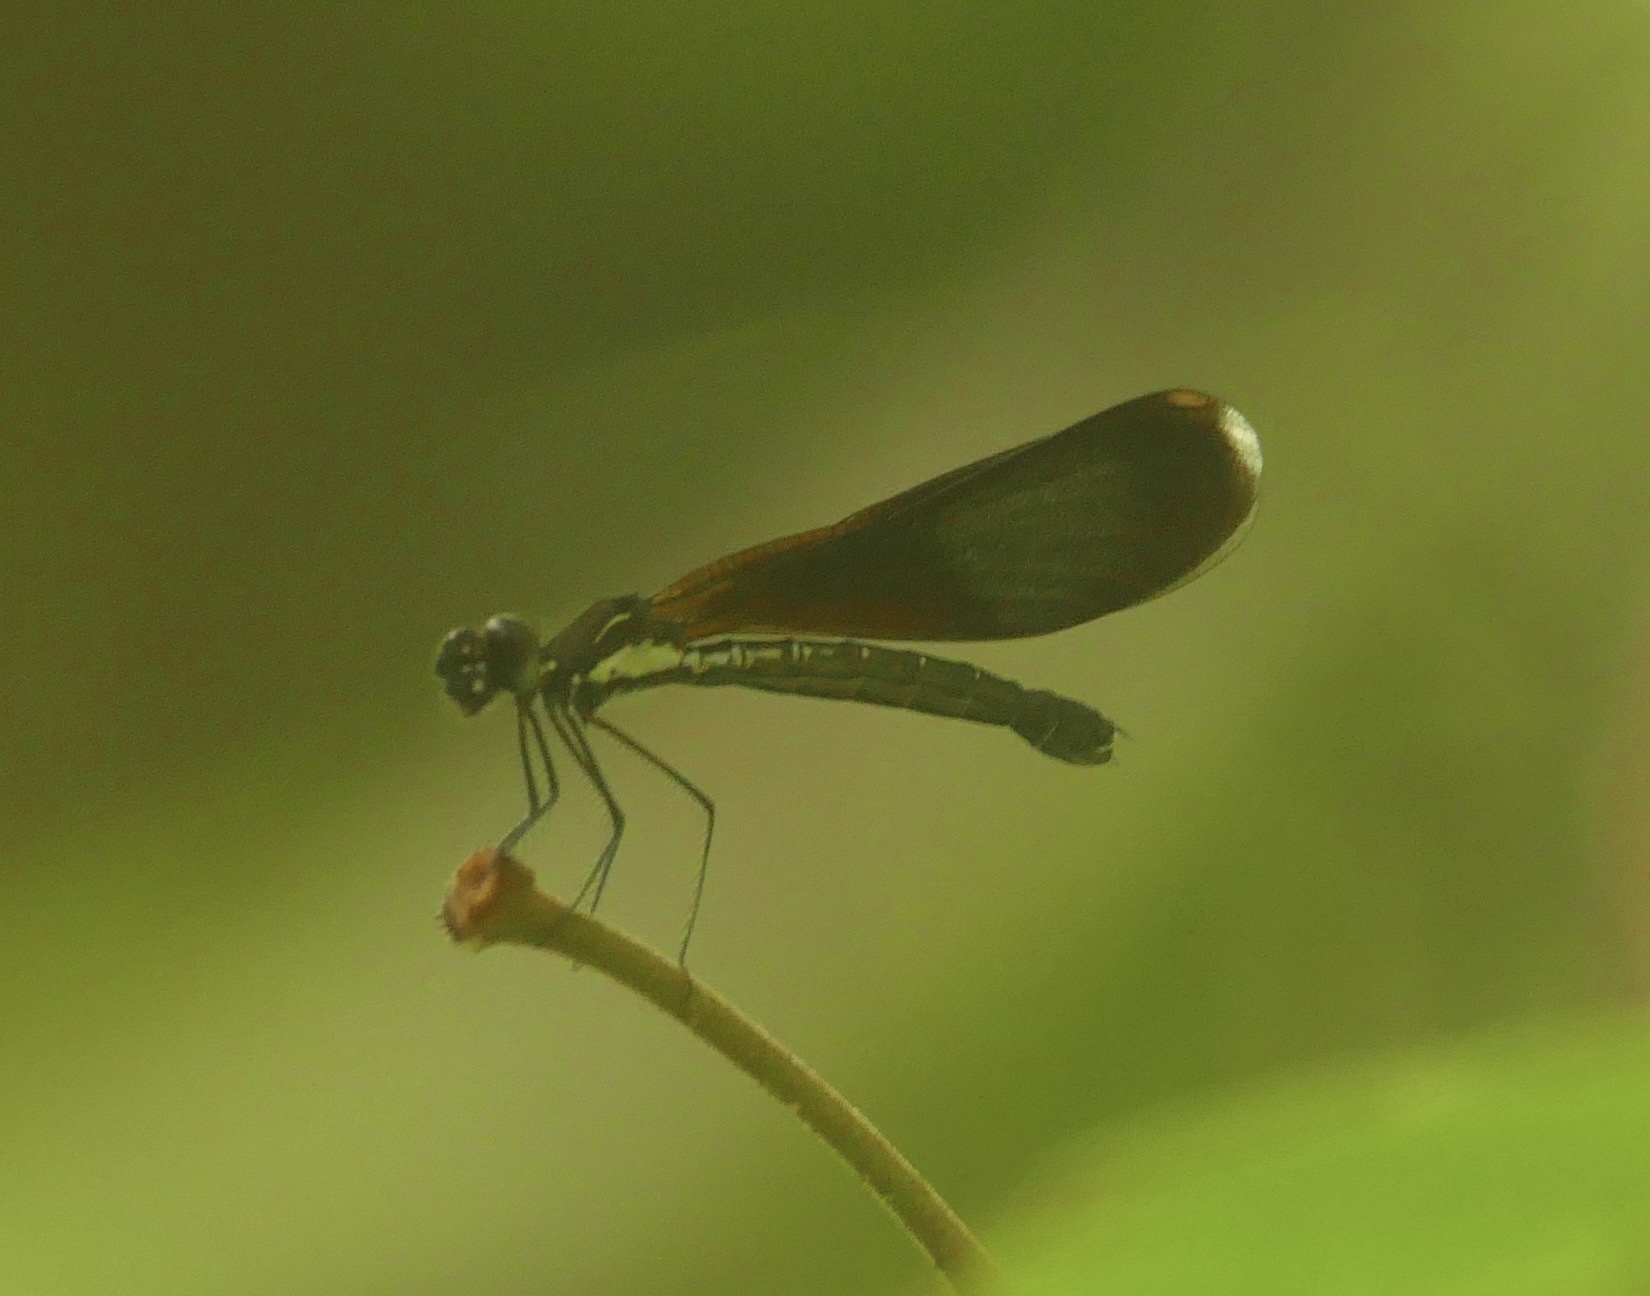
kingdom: Animalia
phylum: Arthropoda
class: Insecta
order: Odonata
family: Chlorocyphidae
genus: Rhinocypha
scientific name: Rhinocypha tincta
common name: Papuan jewel
